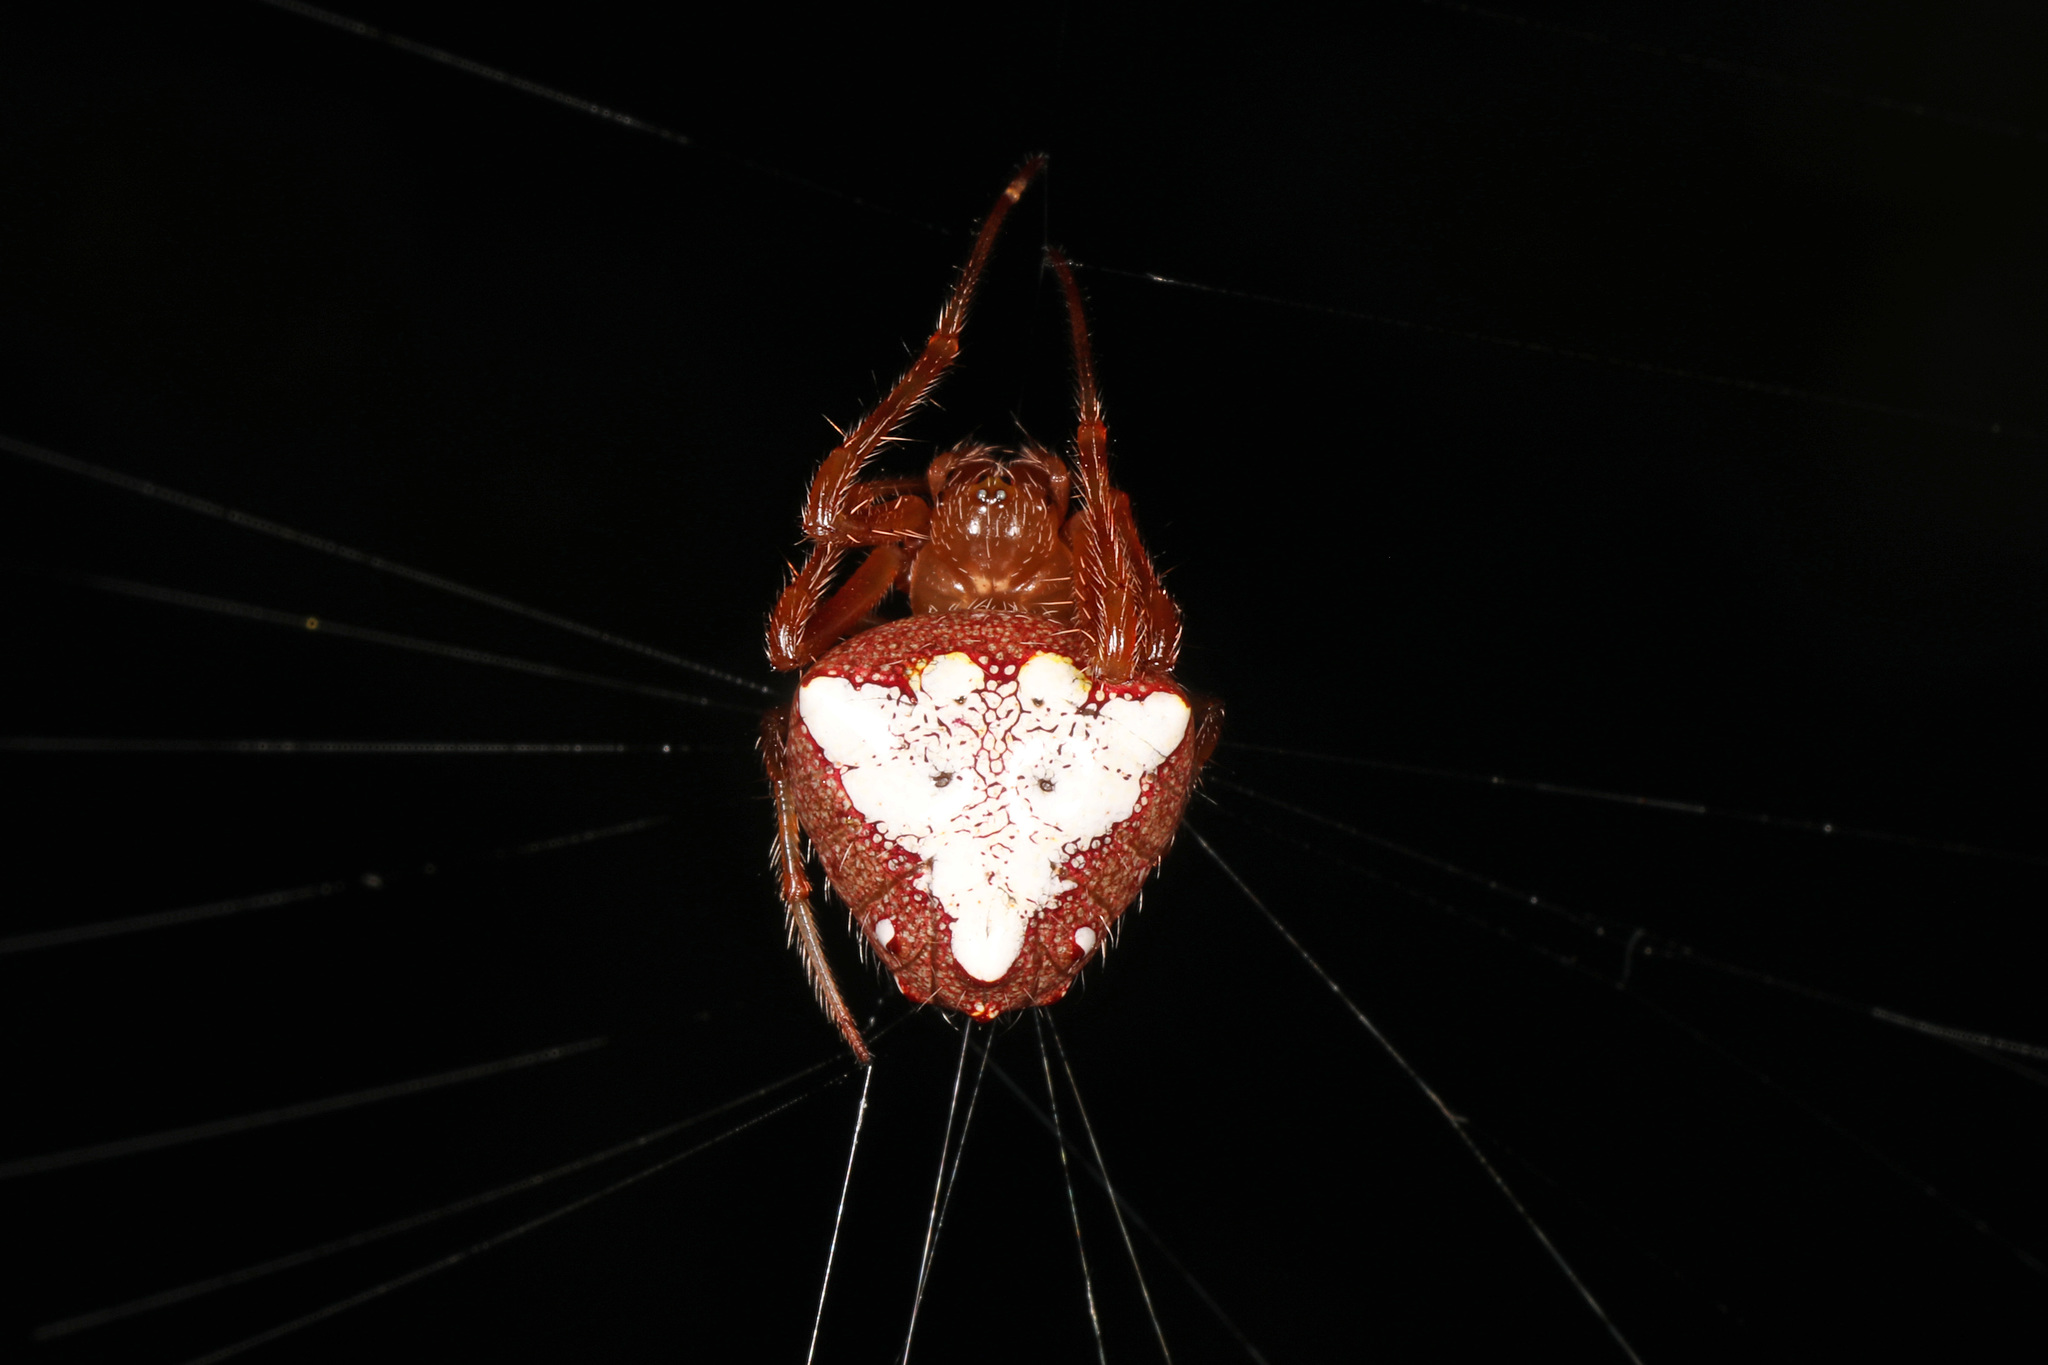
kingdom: Animalia
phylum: Arthropoda
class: Arachnida
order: Araneae
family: Araneidae
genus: Verrucosa
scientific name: Verrucosa arenata
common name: Orb weavers
